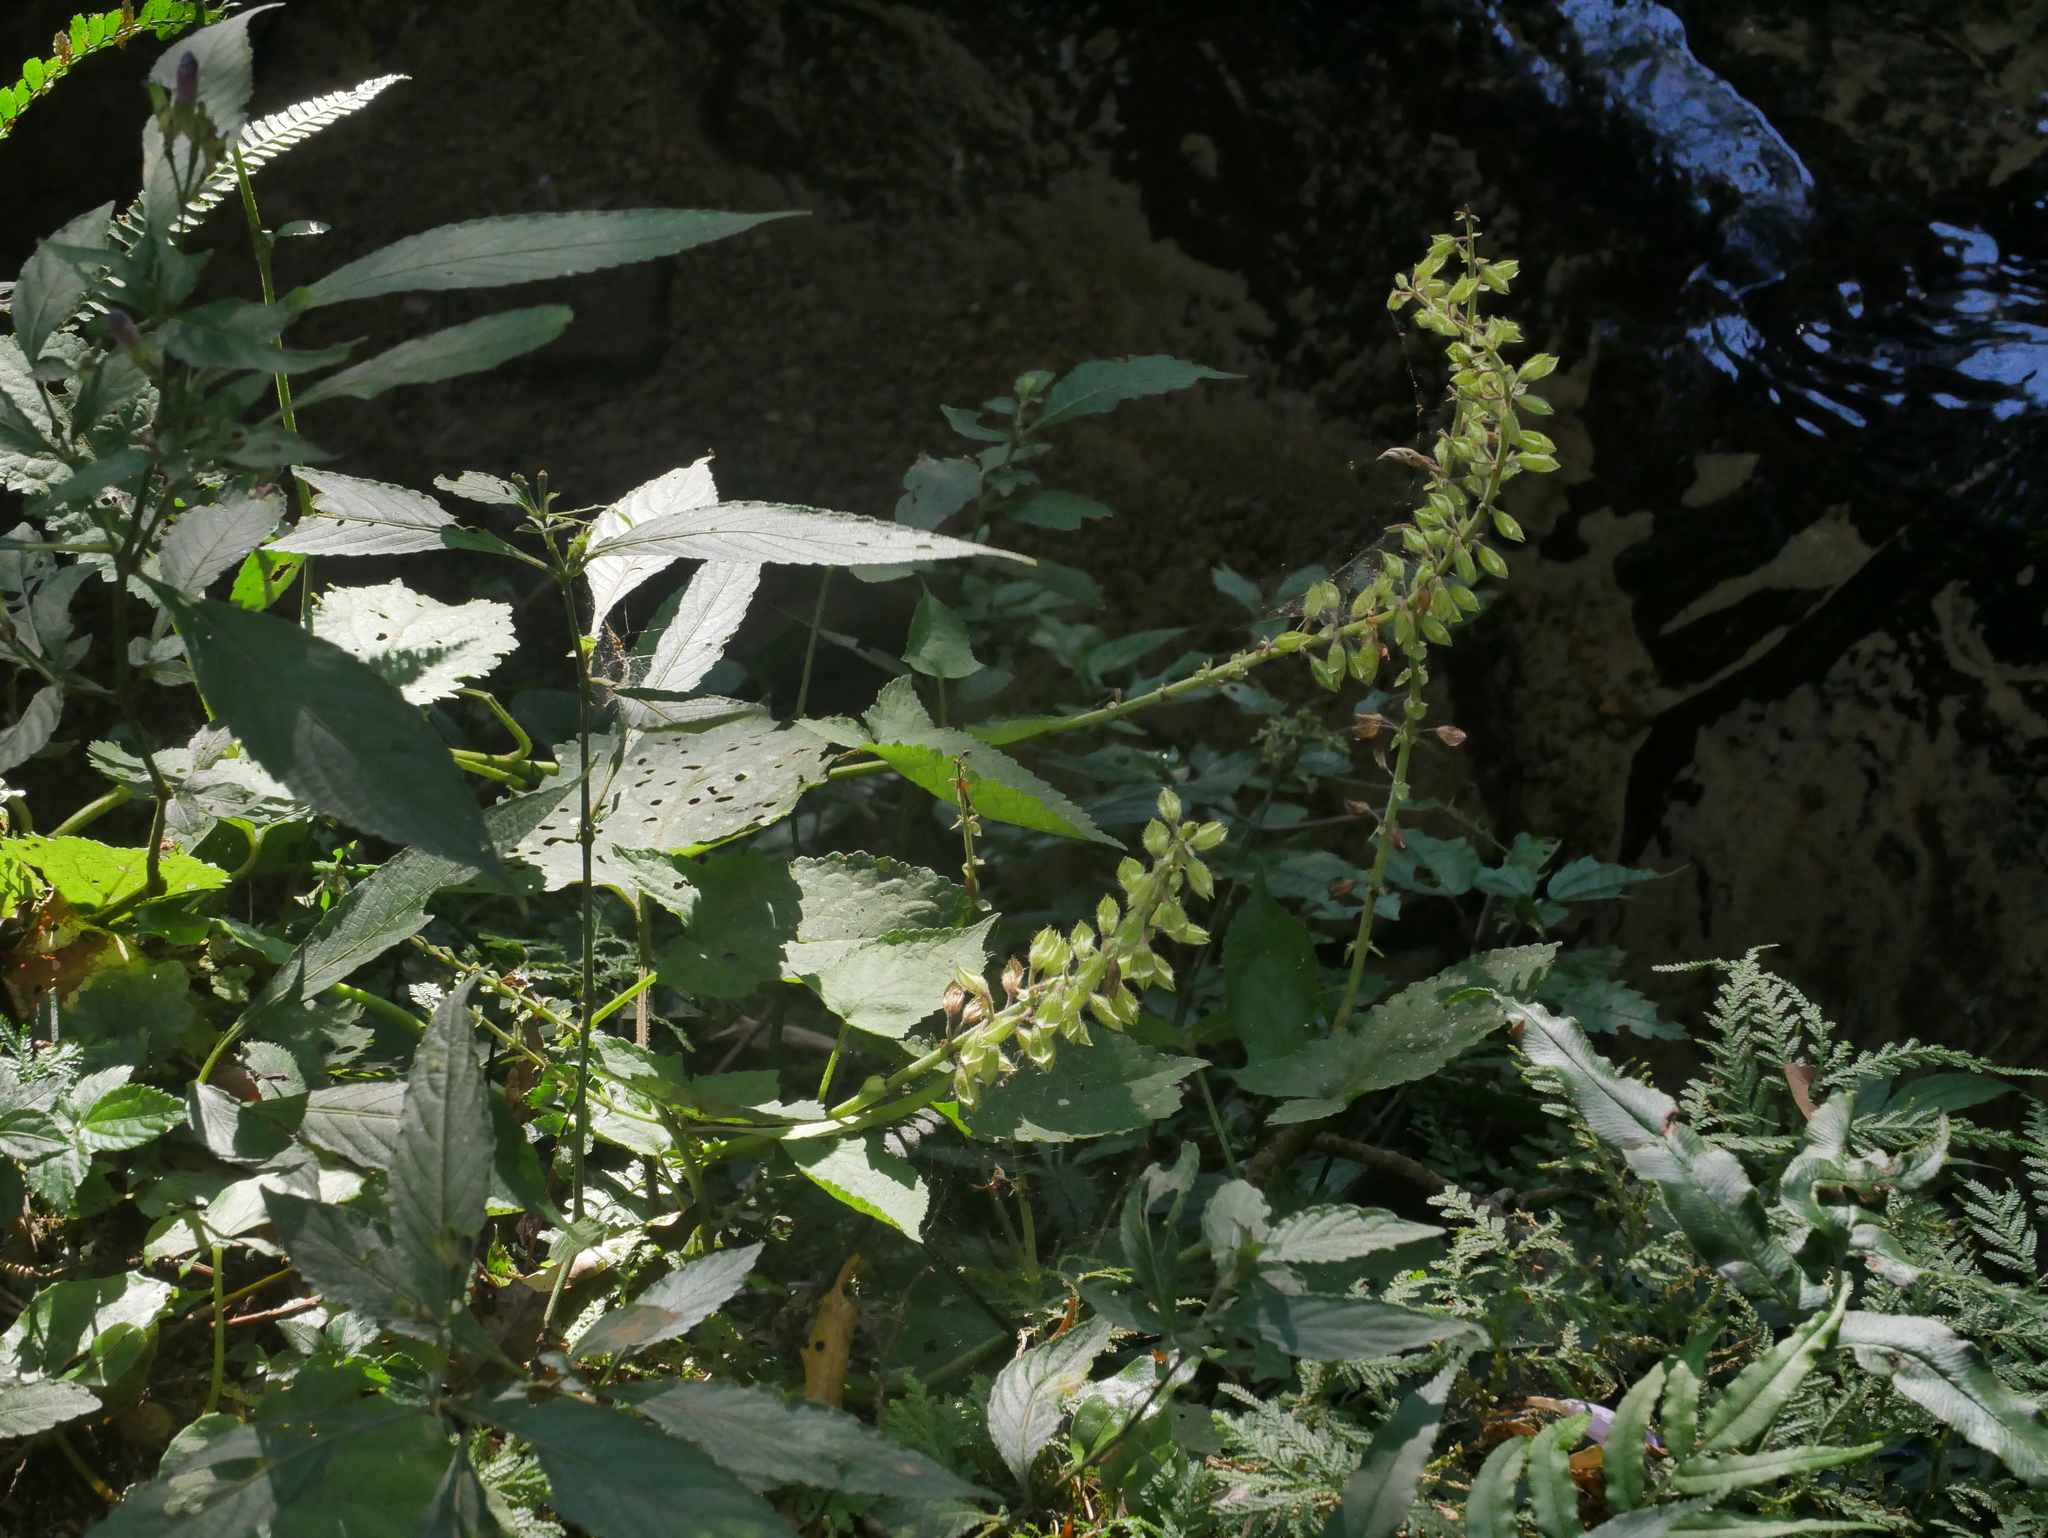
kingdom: Plantae
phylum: Tracheophyta
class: Magnoliopsida
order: Lamiales
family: Lamiaceae
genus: Salvia
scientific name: Salvia japonica
